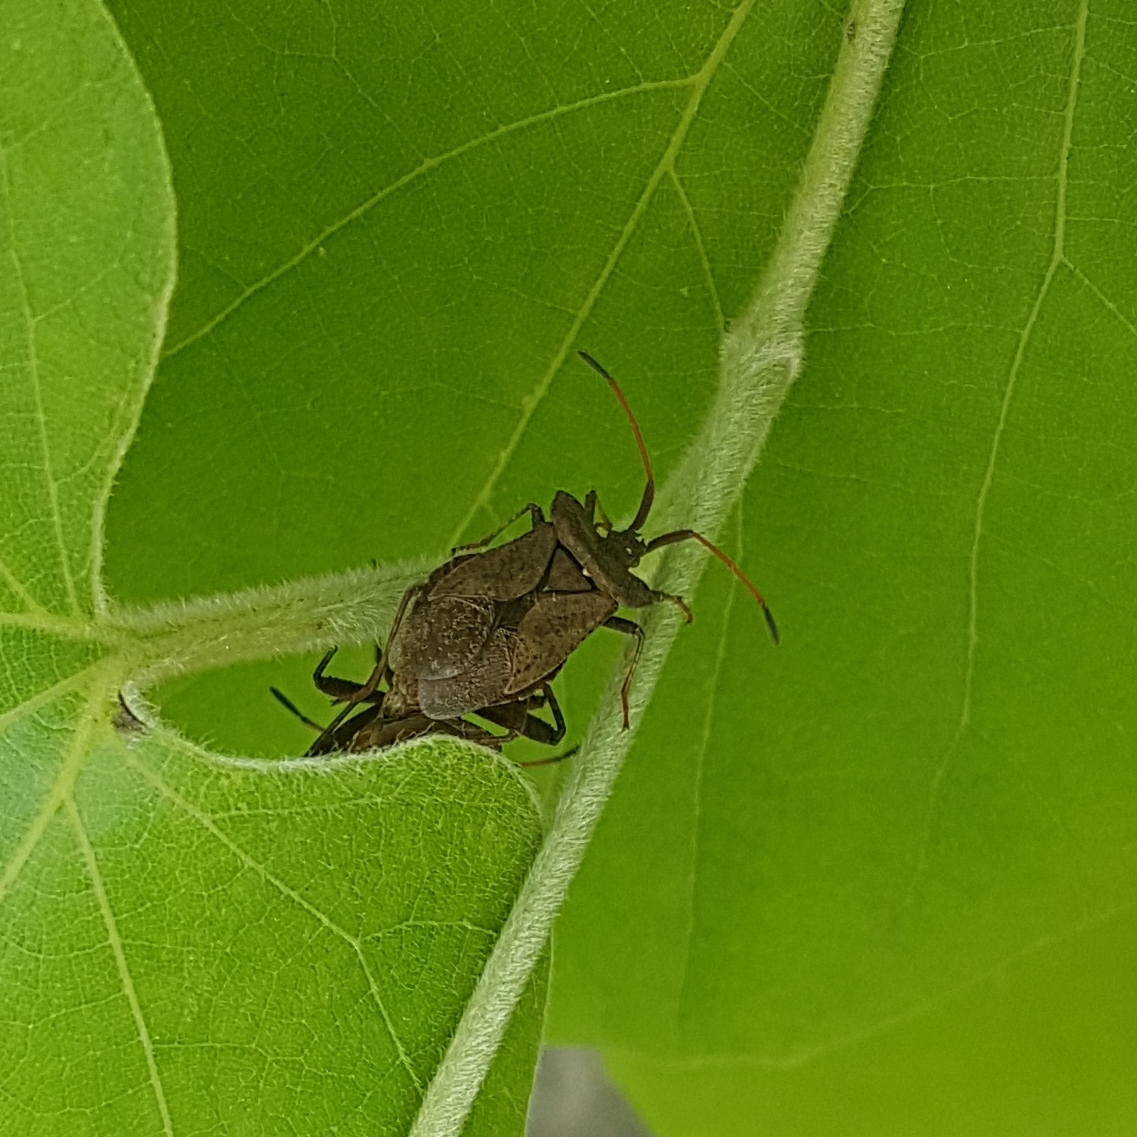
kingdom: Animalia
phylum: Arthropoda
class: Insecta
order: Hemiptera
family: Coreidae
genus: Coreus
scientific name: Coreus marginatus
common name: Dock bug
